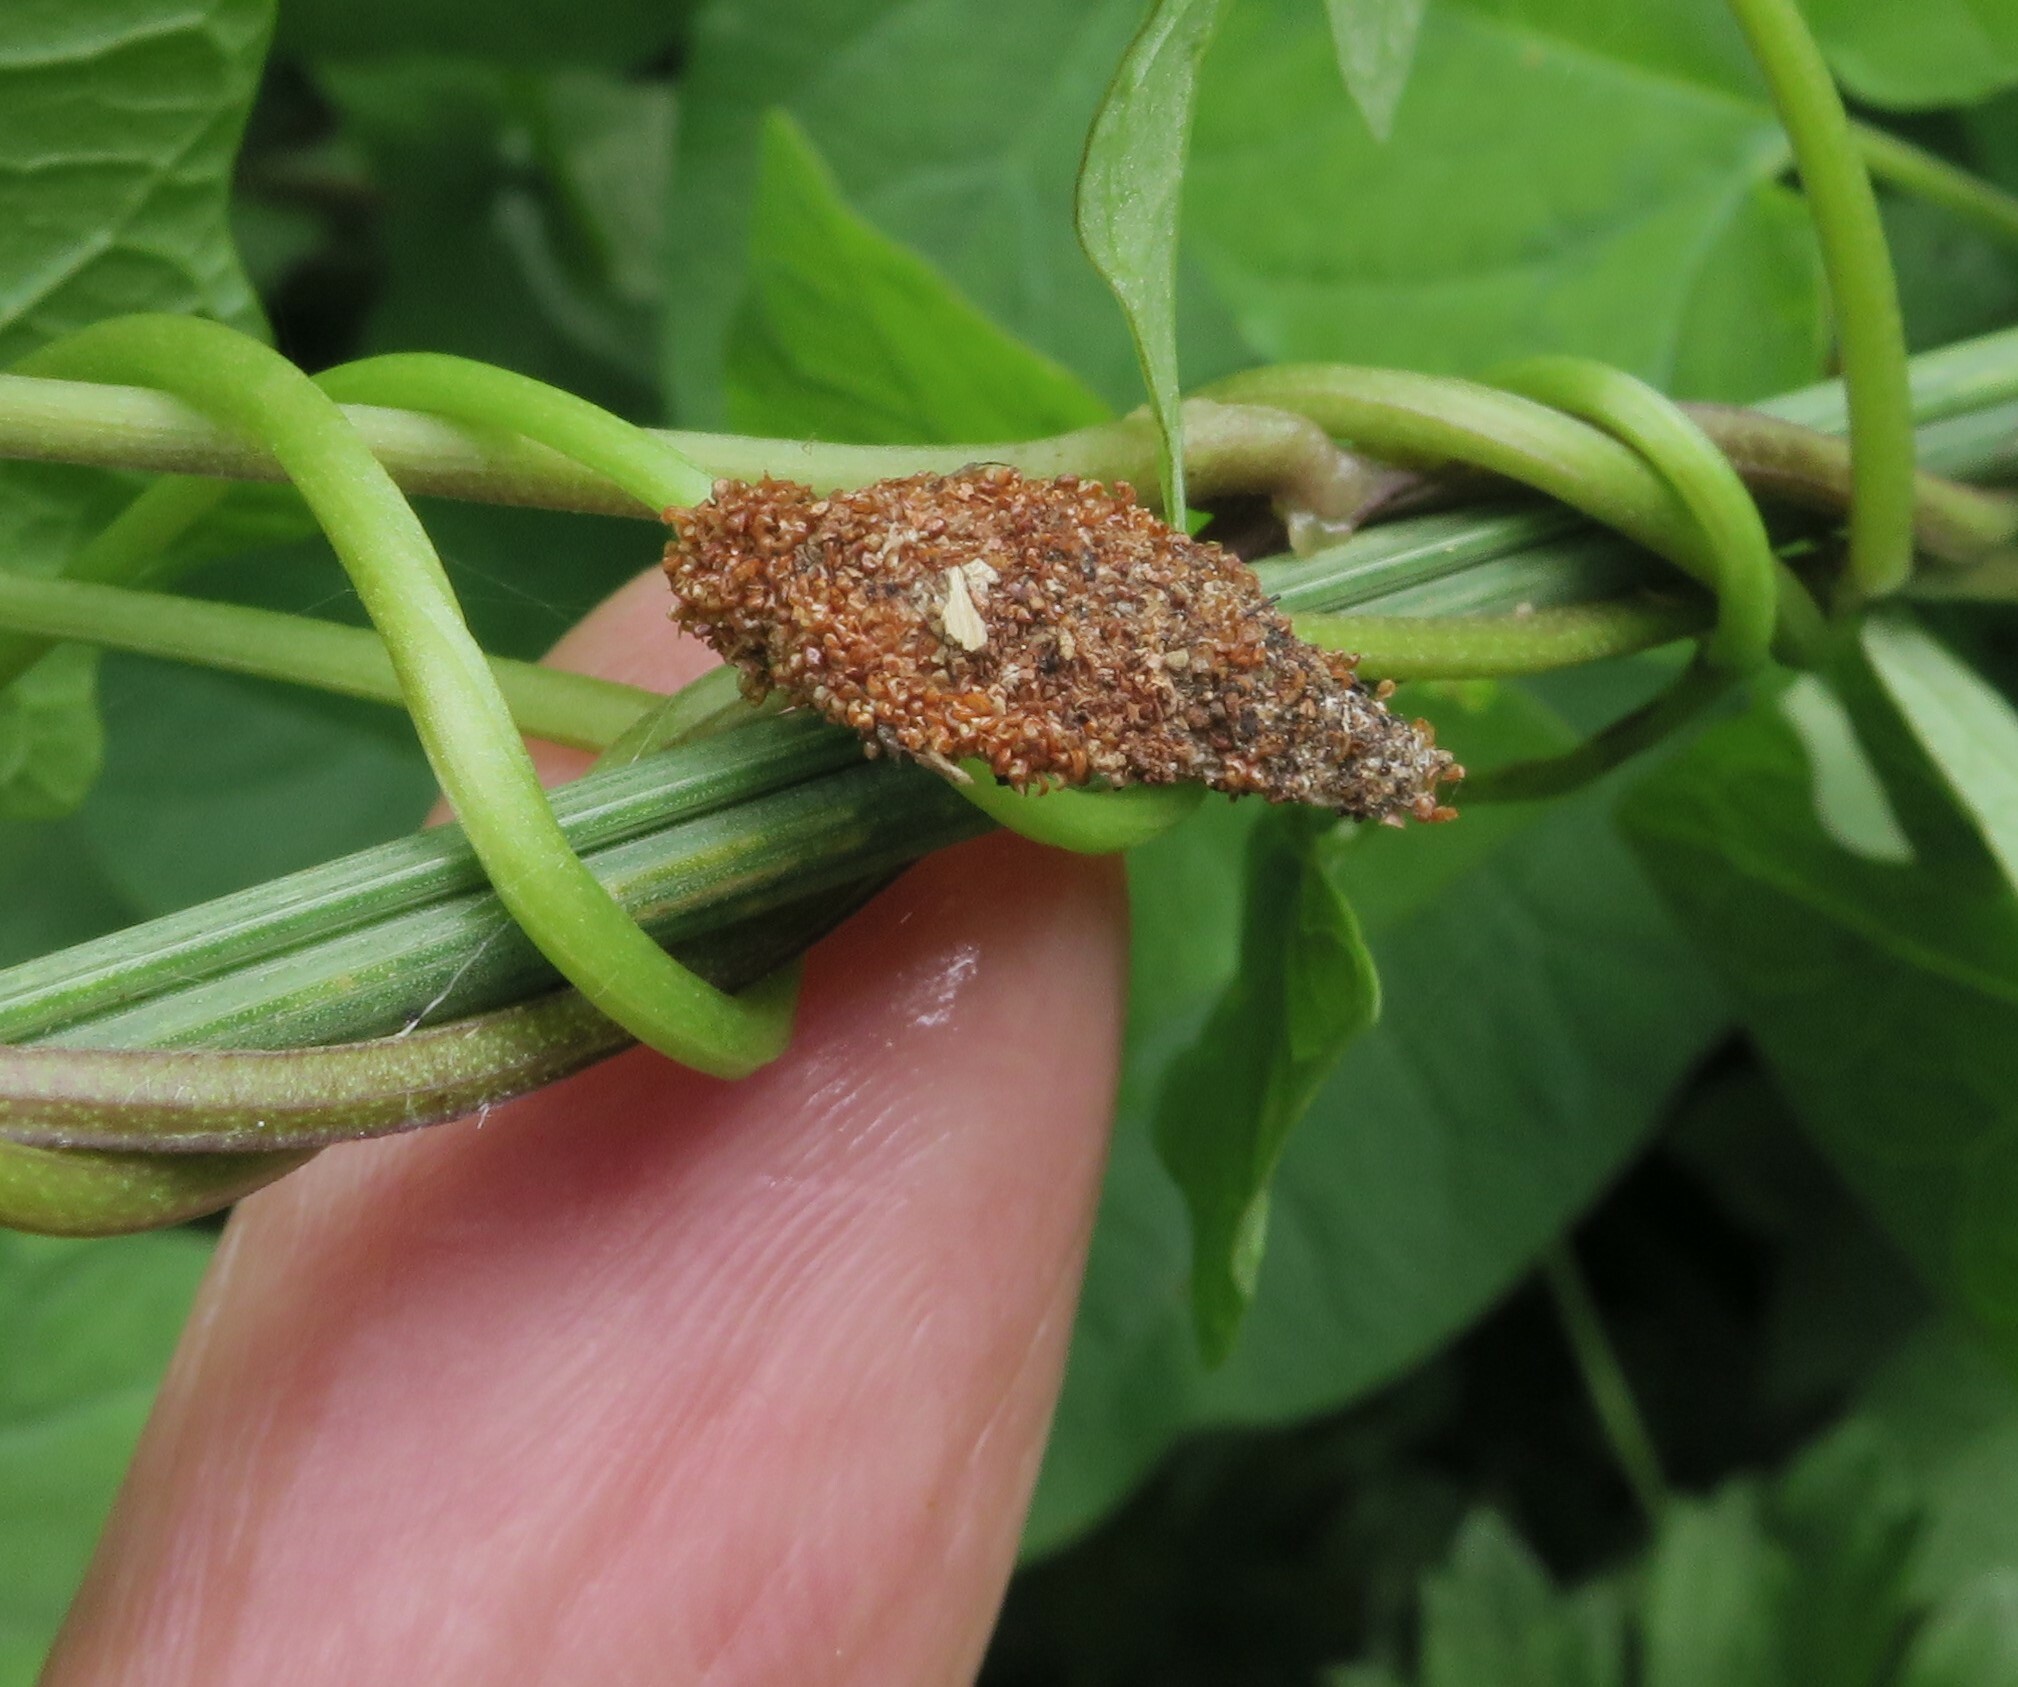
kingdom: Animalia
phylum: Arthropoda
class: Insecta
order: Lepidoptera
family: Psychidae
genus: Cebysa
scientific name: Cebysa leucotelus
